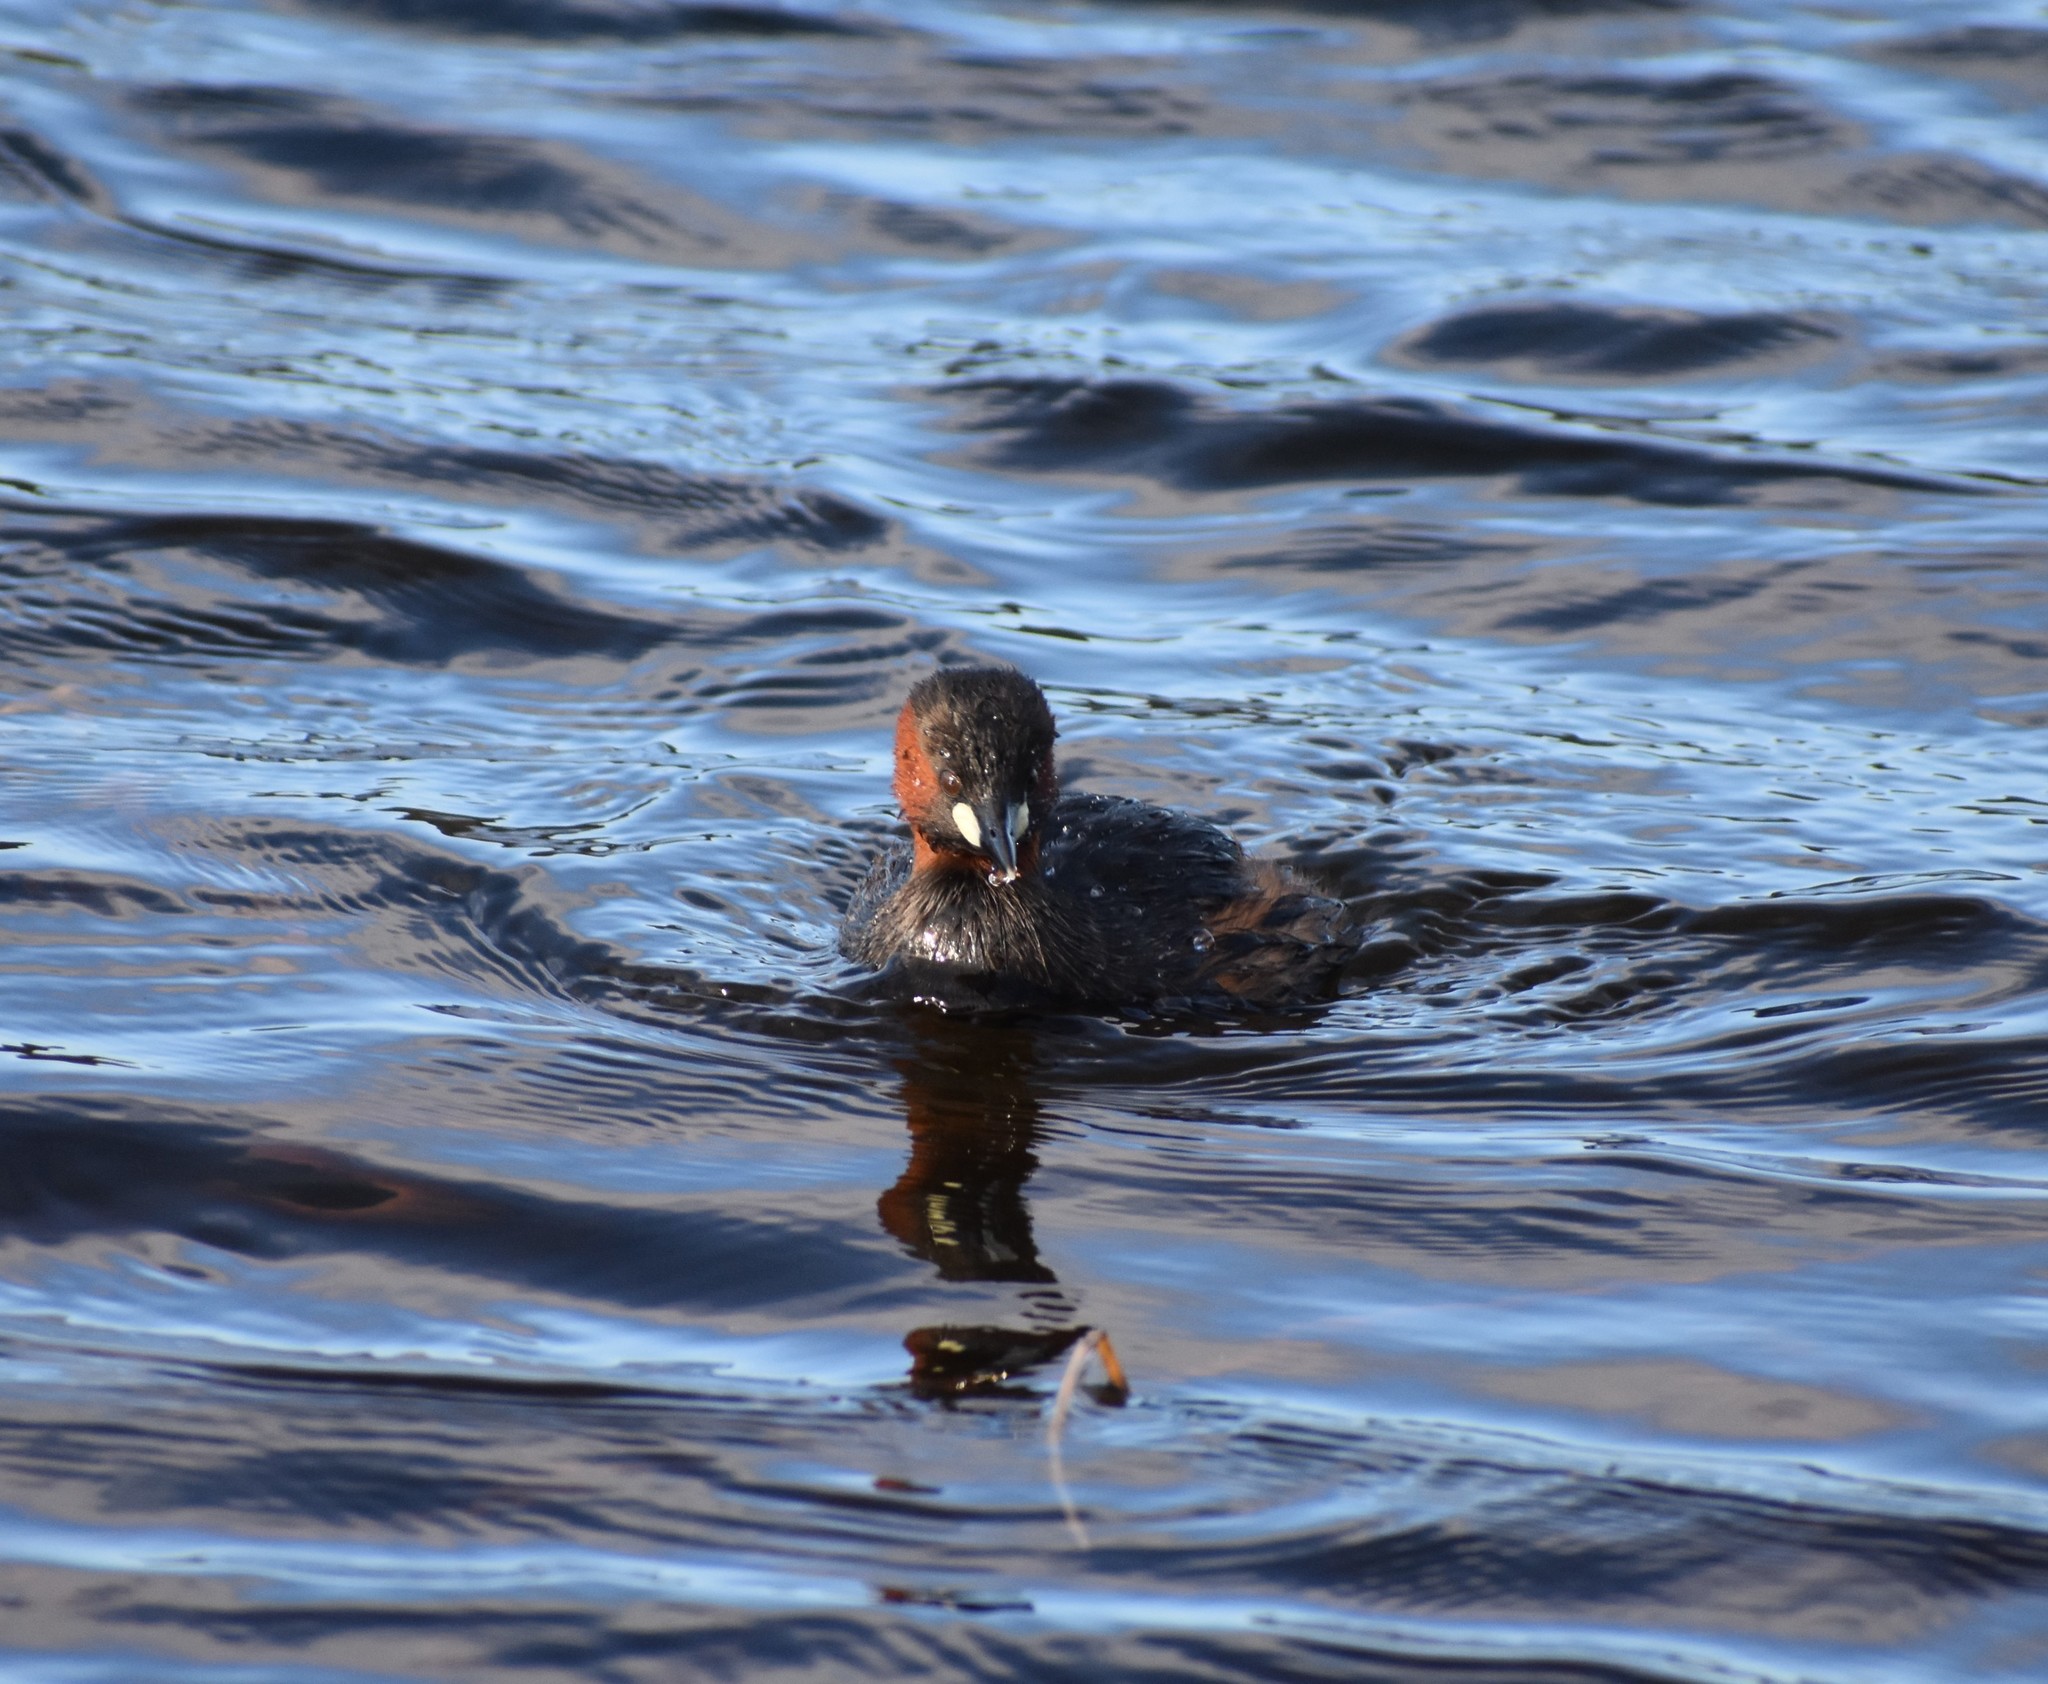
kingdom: Animalia
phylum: Chordata
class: Aves
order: Podicipediformes
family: Podicipedidae
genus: Tachybaptus
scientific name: Tachybaptus ruficollis
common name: Little grebe
